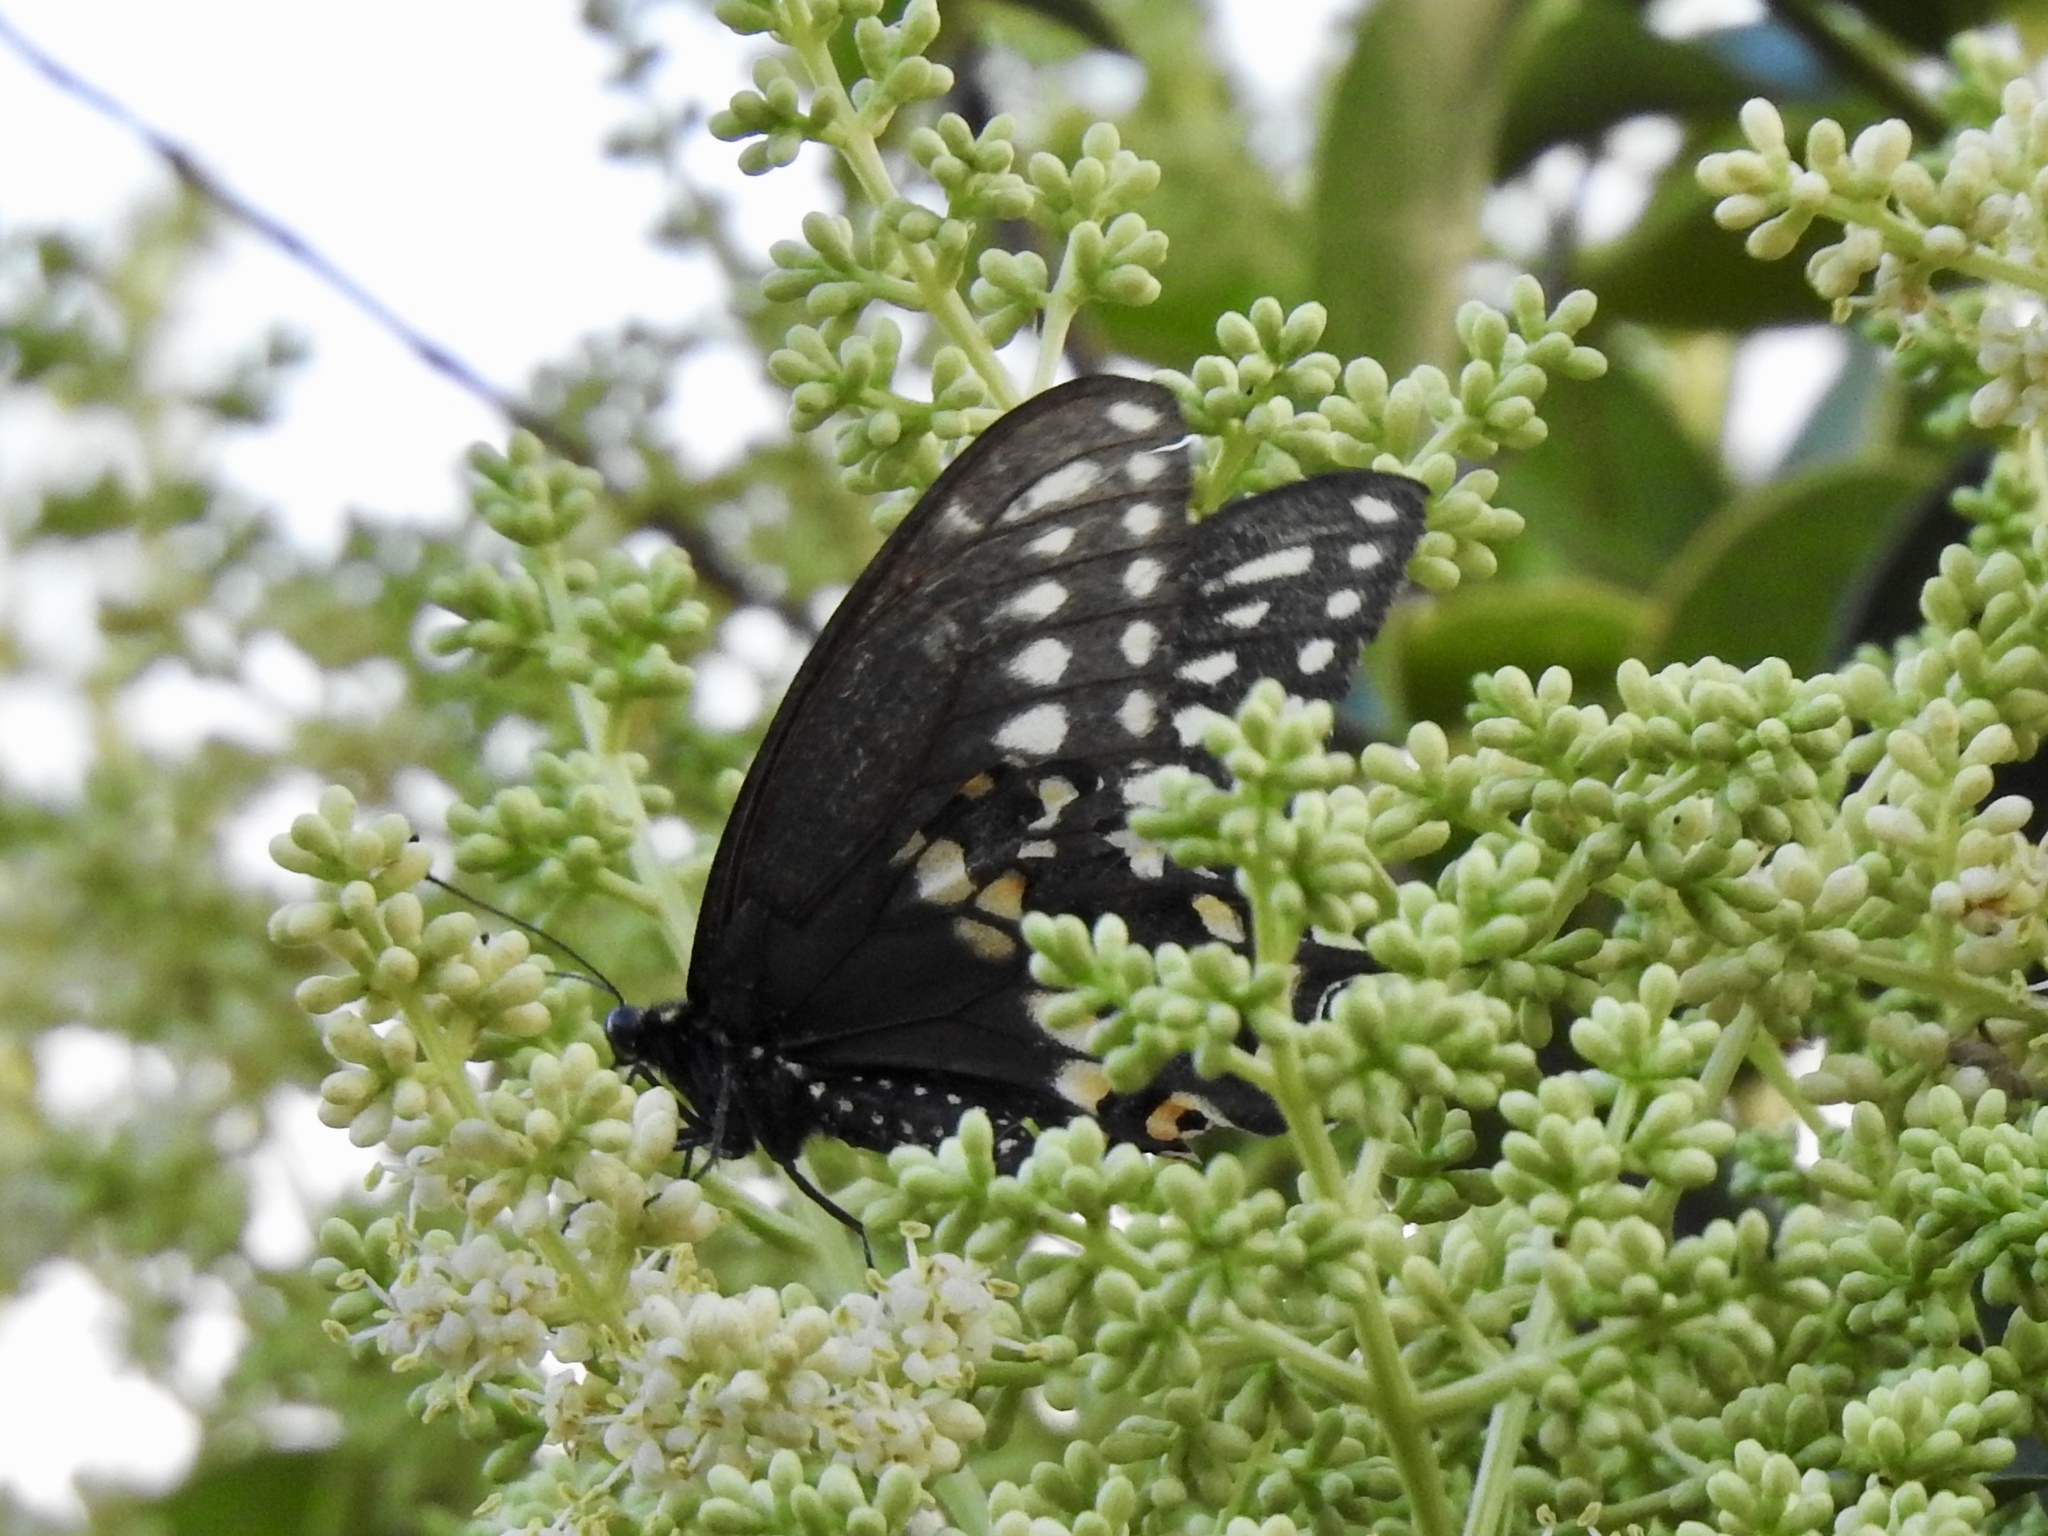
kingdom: Animalia
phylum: Arthropoda
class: Insecta
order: Lepidoptera
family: Papilionidae
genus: Papilio
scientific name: Papilio polyxenes
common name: Black swallowtail
